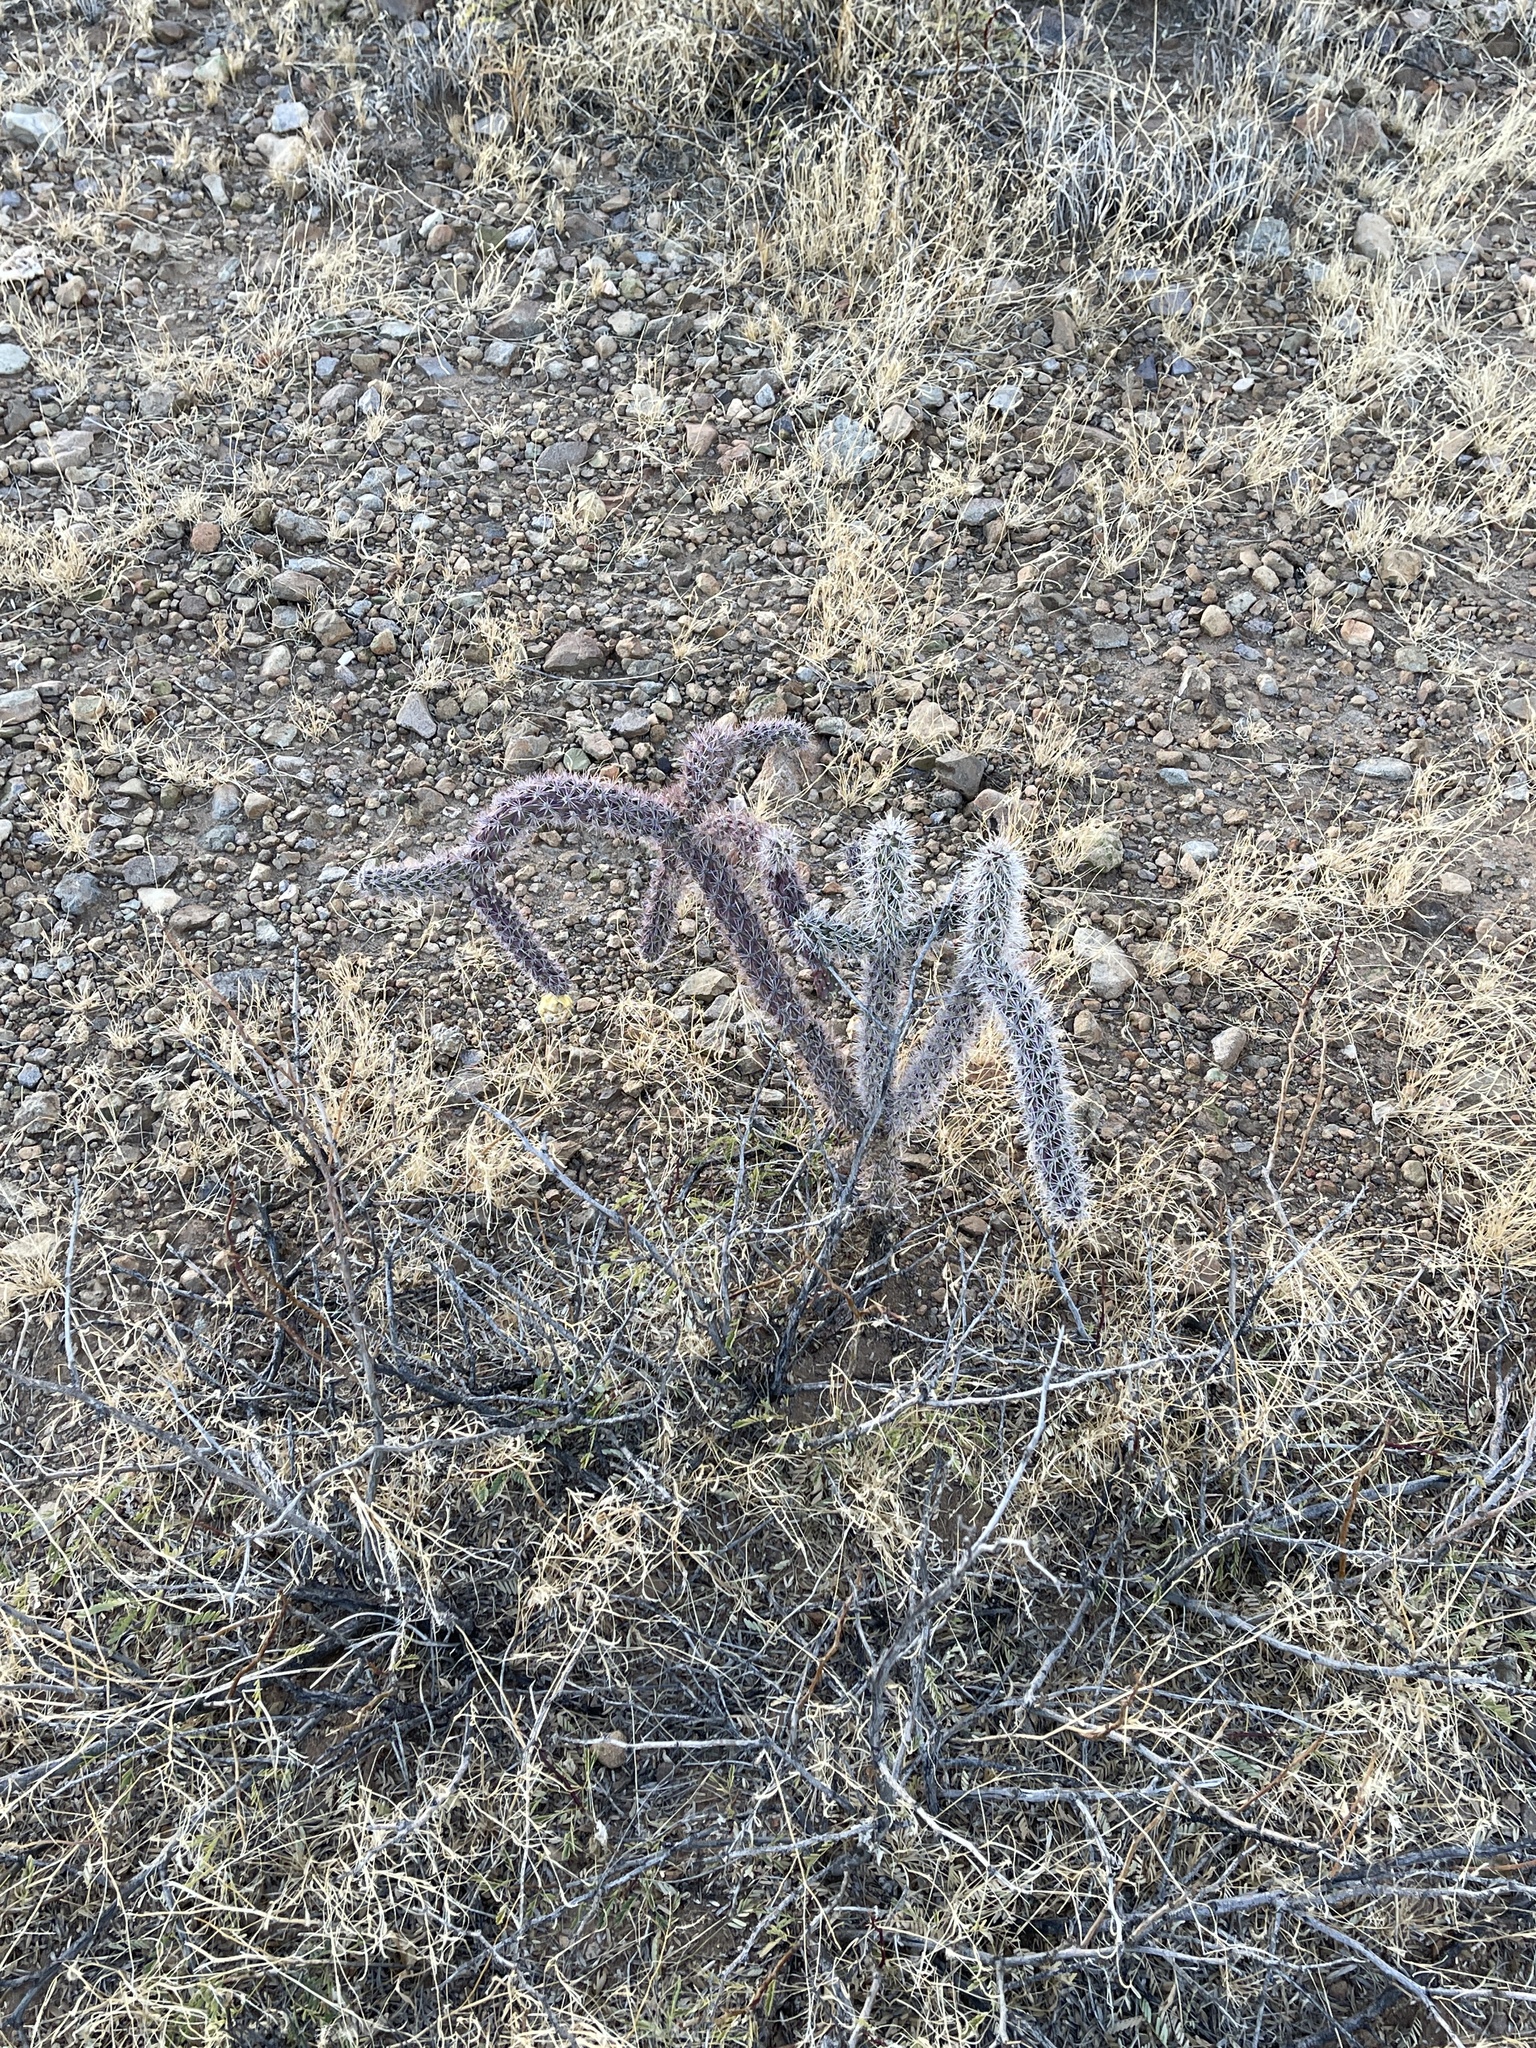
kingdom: Plantae
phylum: Tracheophyta
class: Magnoliopsida
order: Caryophyllales
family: Cactaceae
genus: Cylindropuntia
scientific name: Cylindropuntia imbricata
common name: Candelabrum cactus
